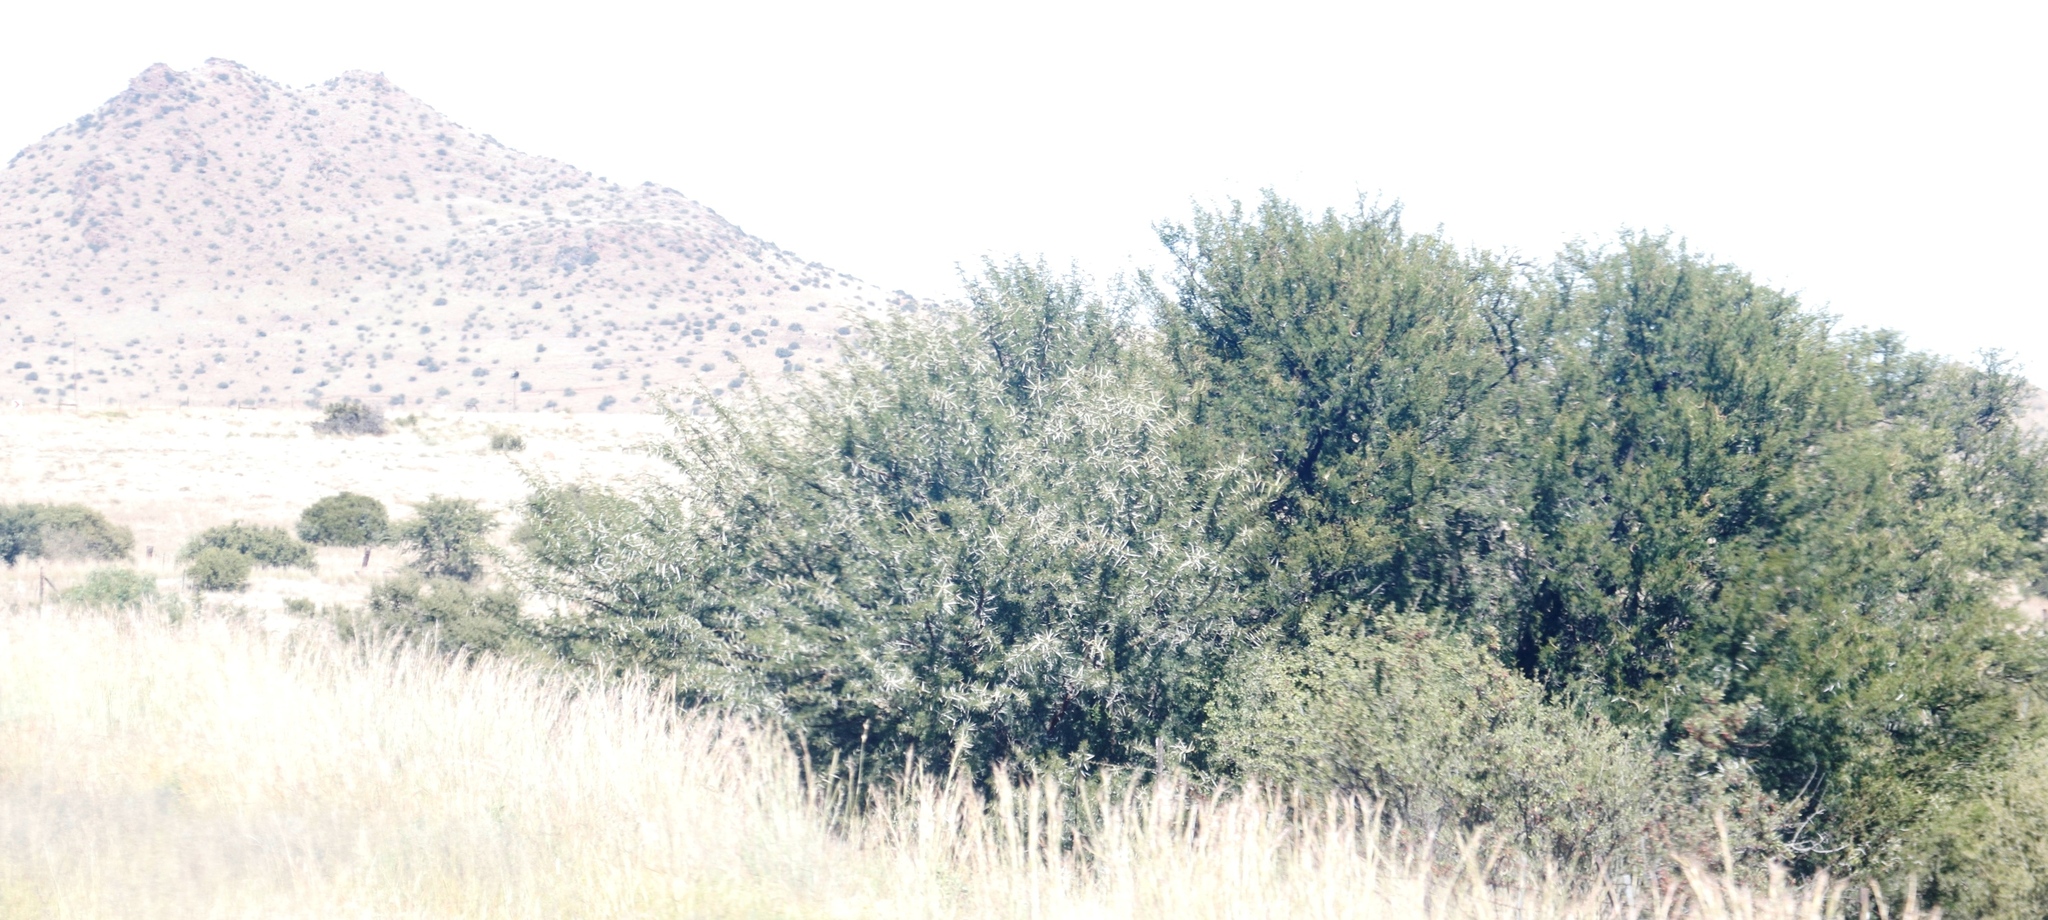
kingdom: Plantae
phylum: Tracheophyta
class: Magnoliopsida
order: Fabales
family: Fabaceae
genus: Vachellia
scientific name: Vachellia karroo
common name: Sweet thorn
